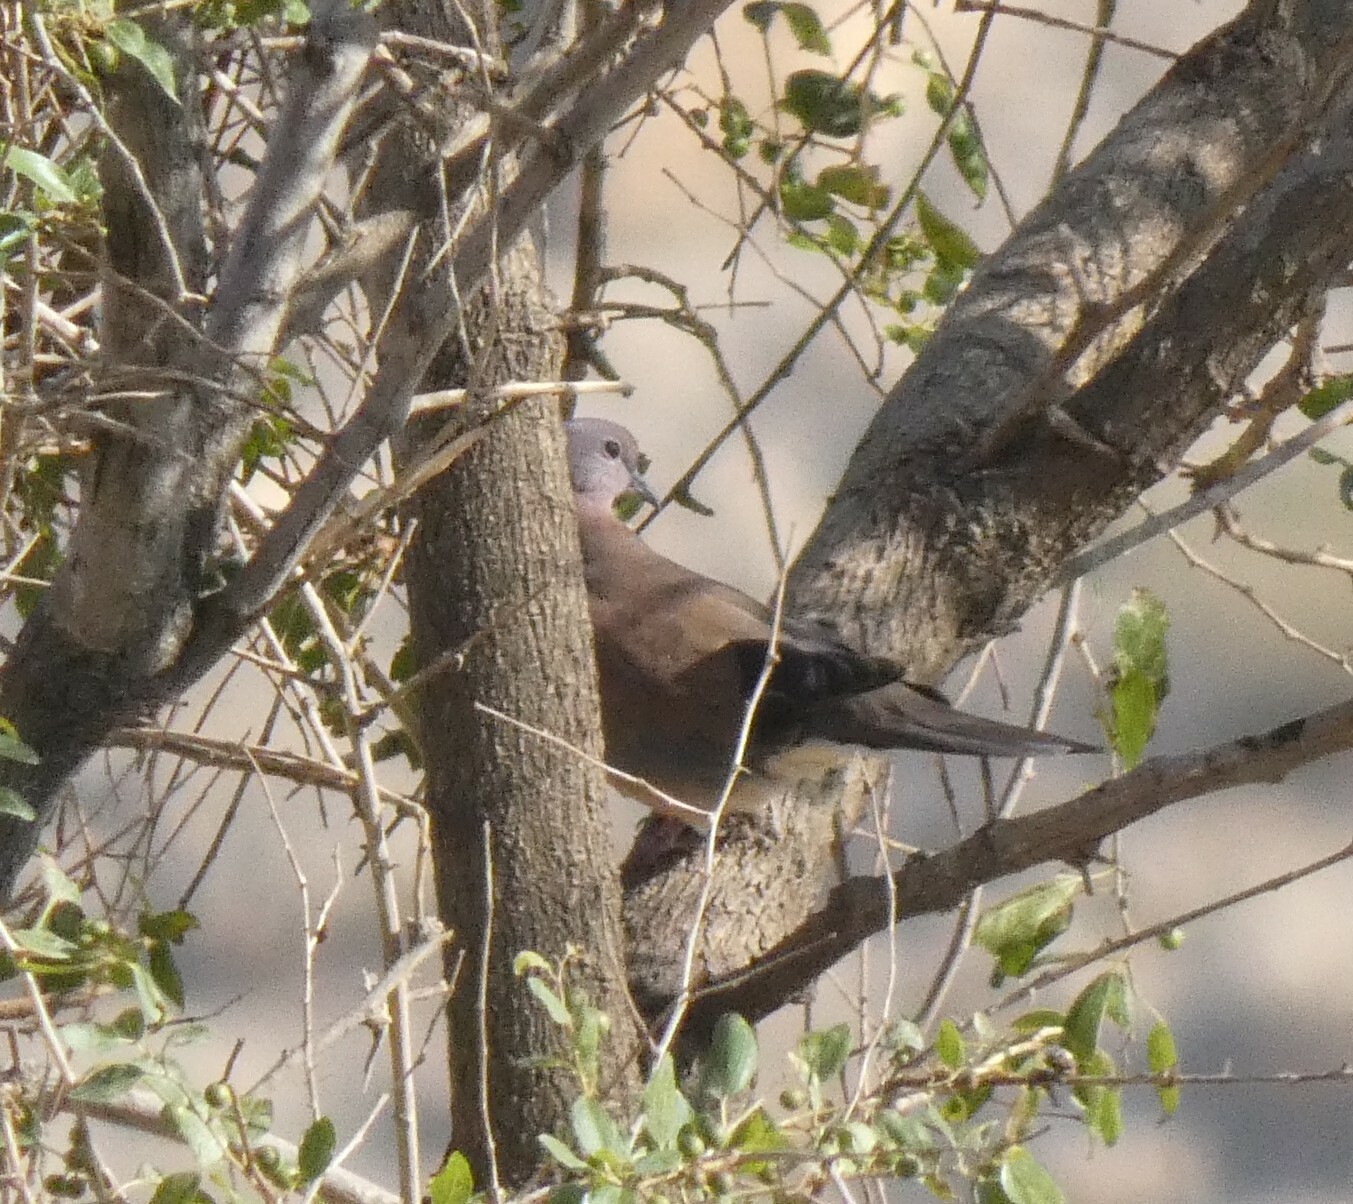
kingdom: Animalia
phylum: Chordata
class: Aves
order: Columbiformes
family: Columbidae
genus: Spilopelia
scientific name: Spilopelia senegalensis
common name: Laughing dove
